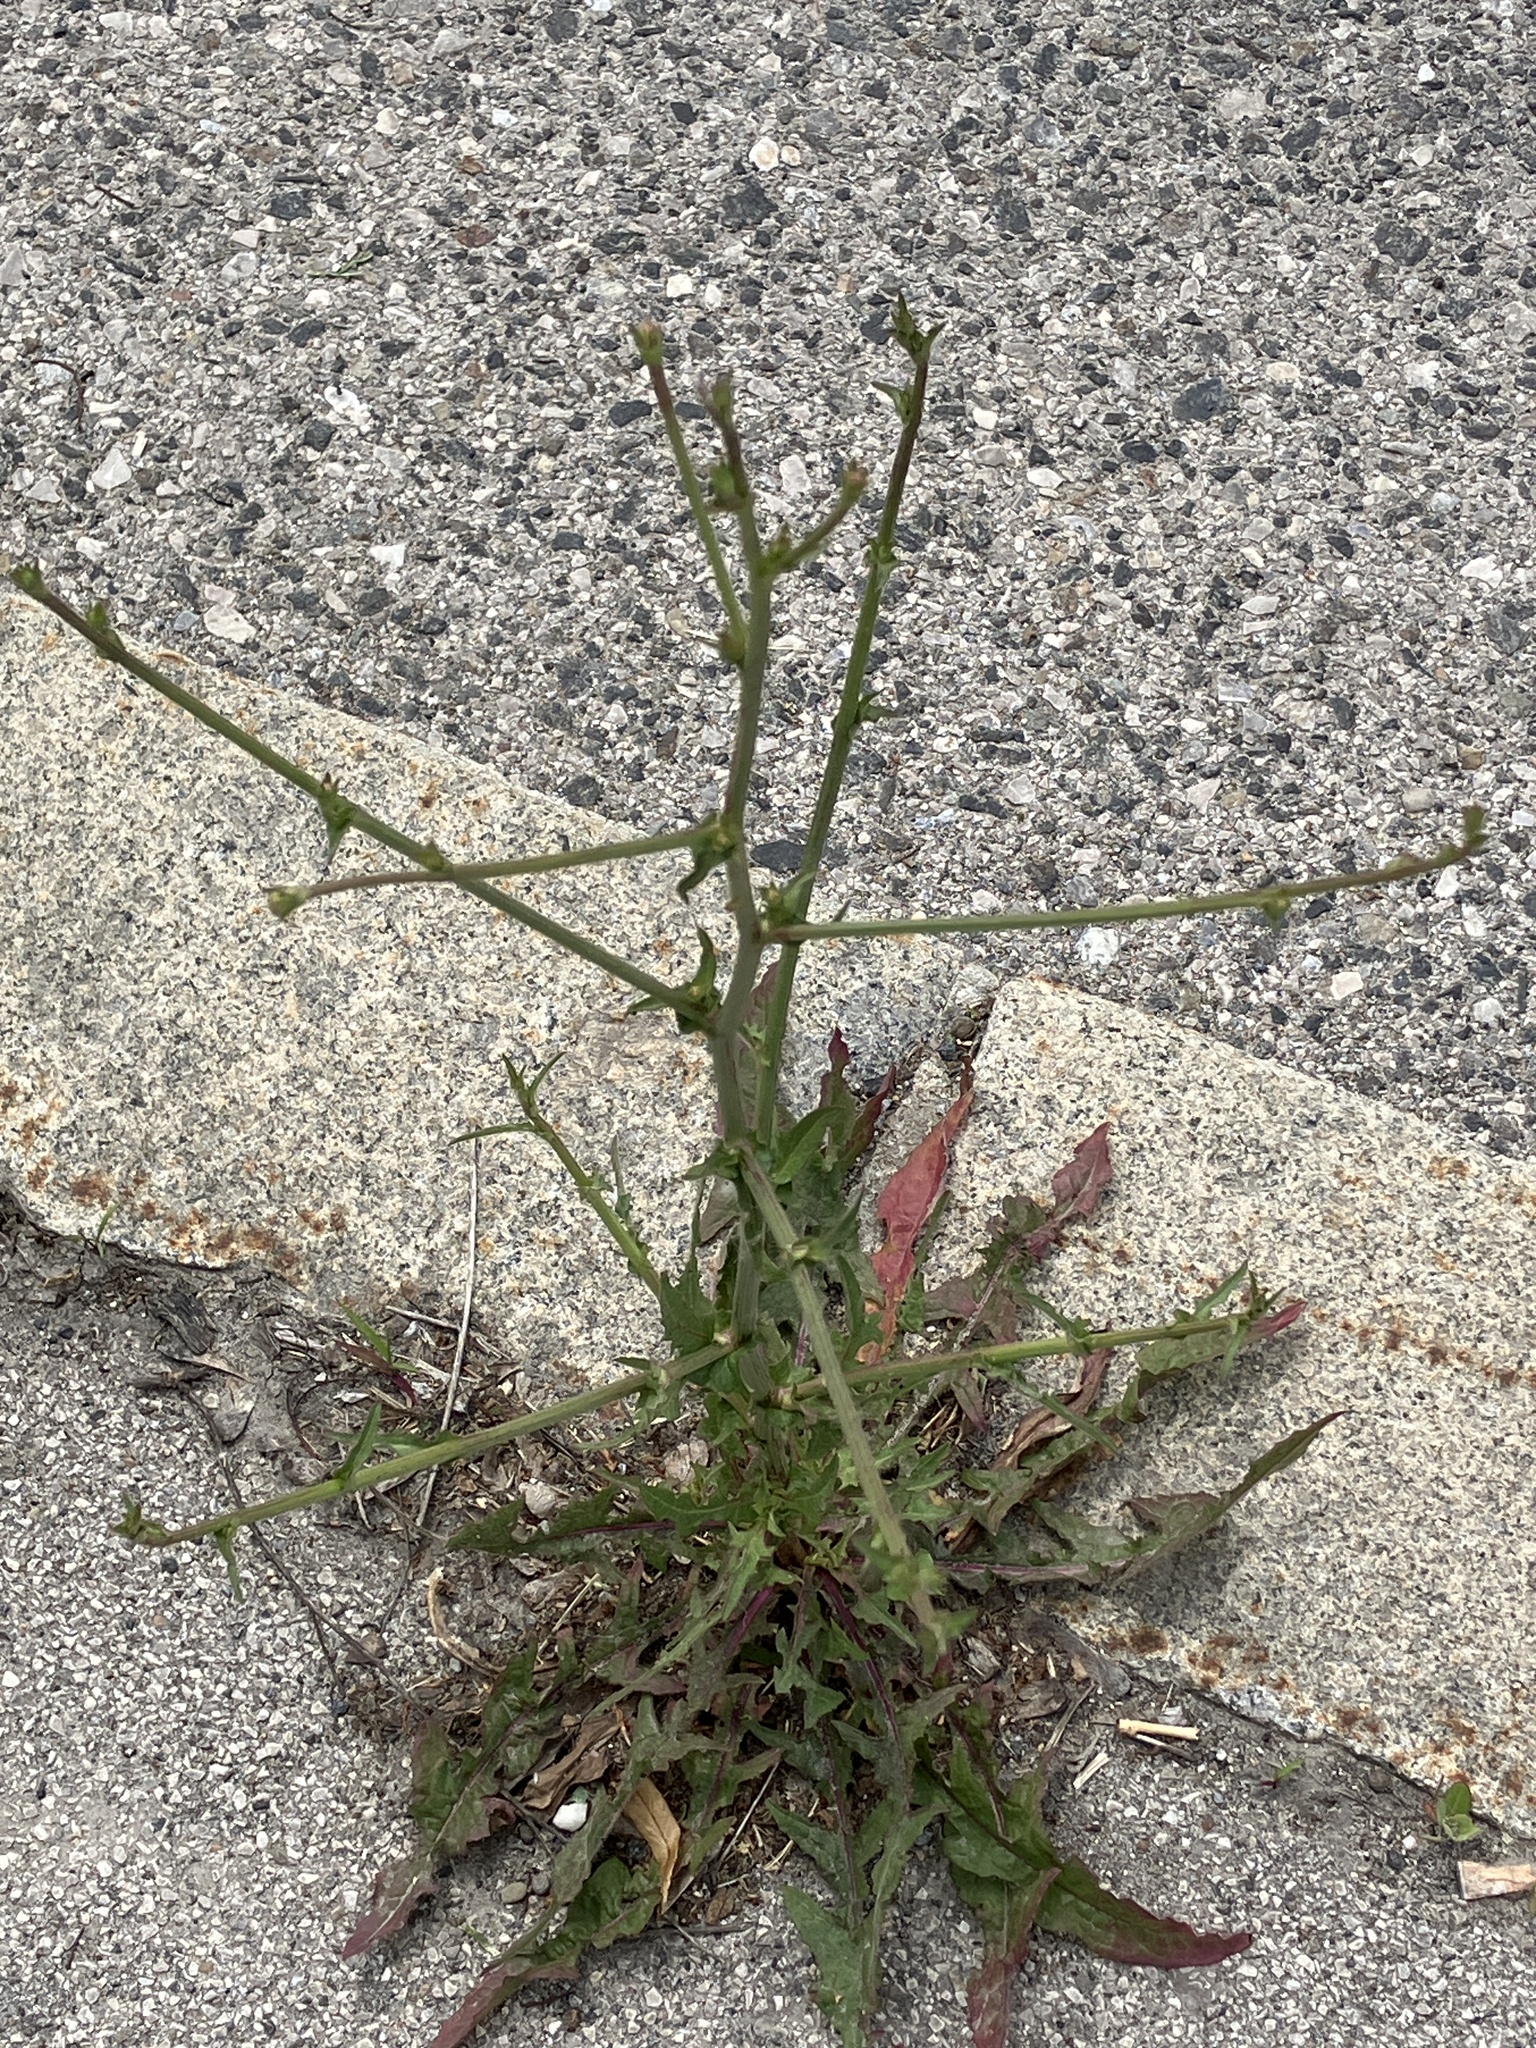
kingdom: Plantae
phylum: Tracheophyta
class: Magnoliopsida
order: Asterales
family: Asteraceae
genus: Cichorium
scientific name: Cichorium intybus
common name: Chicory
